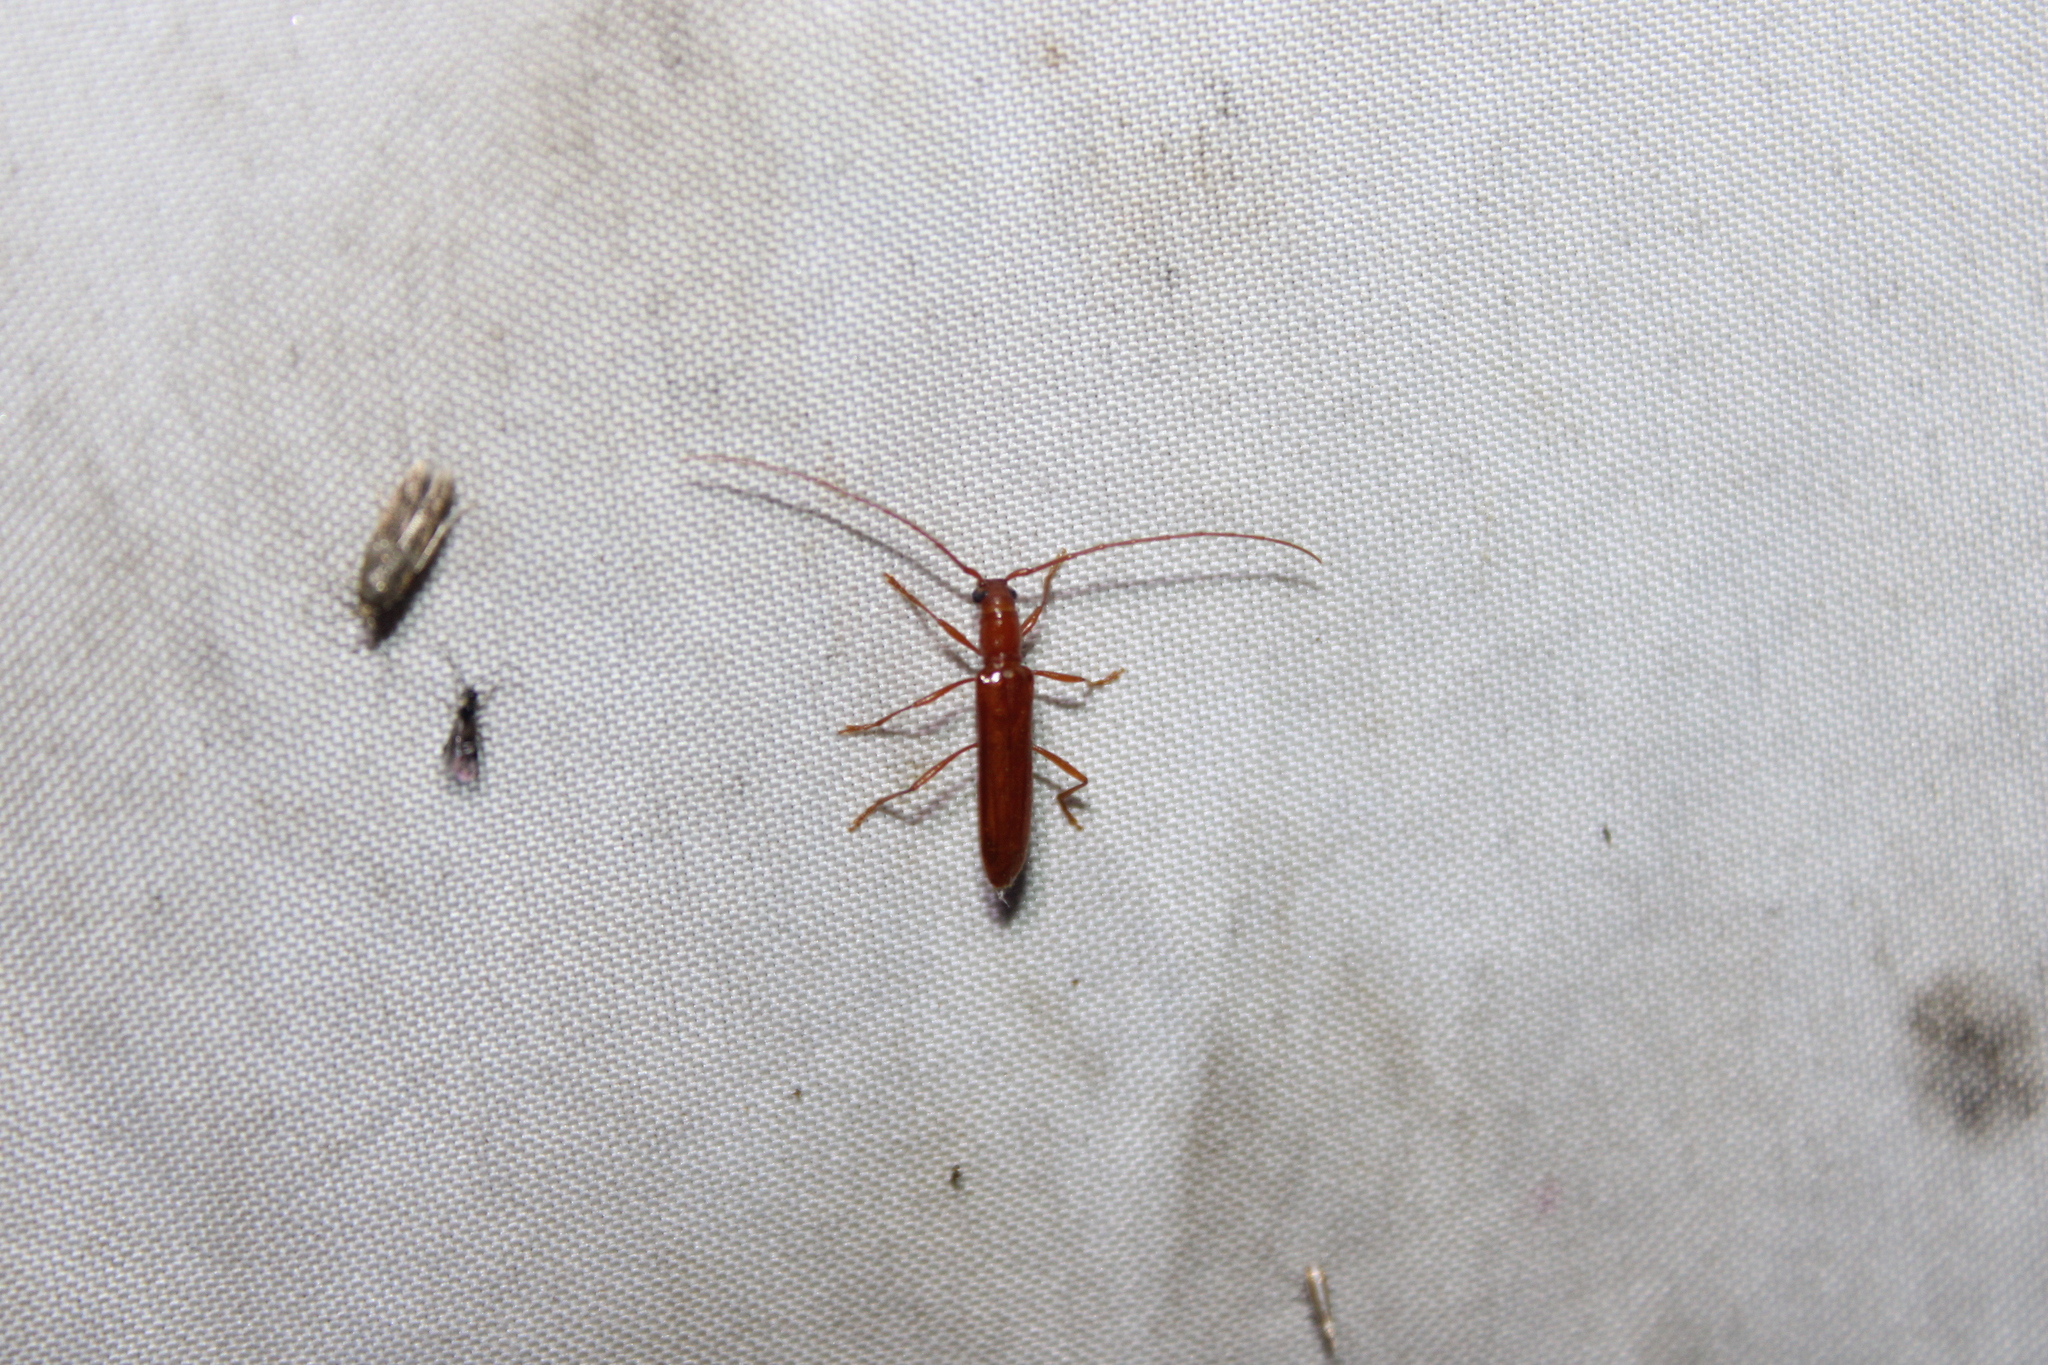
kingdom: Animalia
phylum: Arthropoda
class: Insecta
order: Coleoptera
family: Cerambycidae
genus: Psyrassa
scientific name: Psyrassa unicolor
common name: Branch pruner
